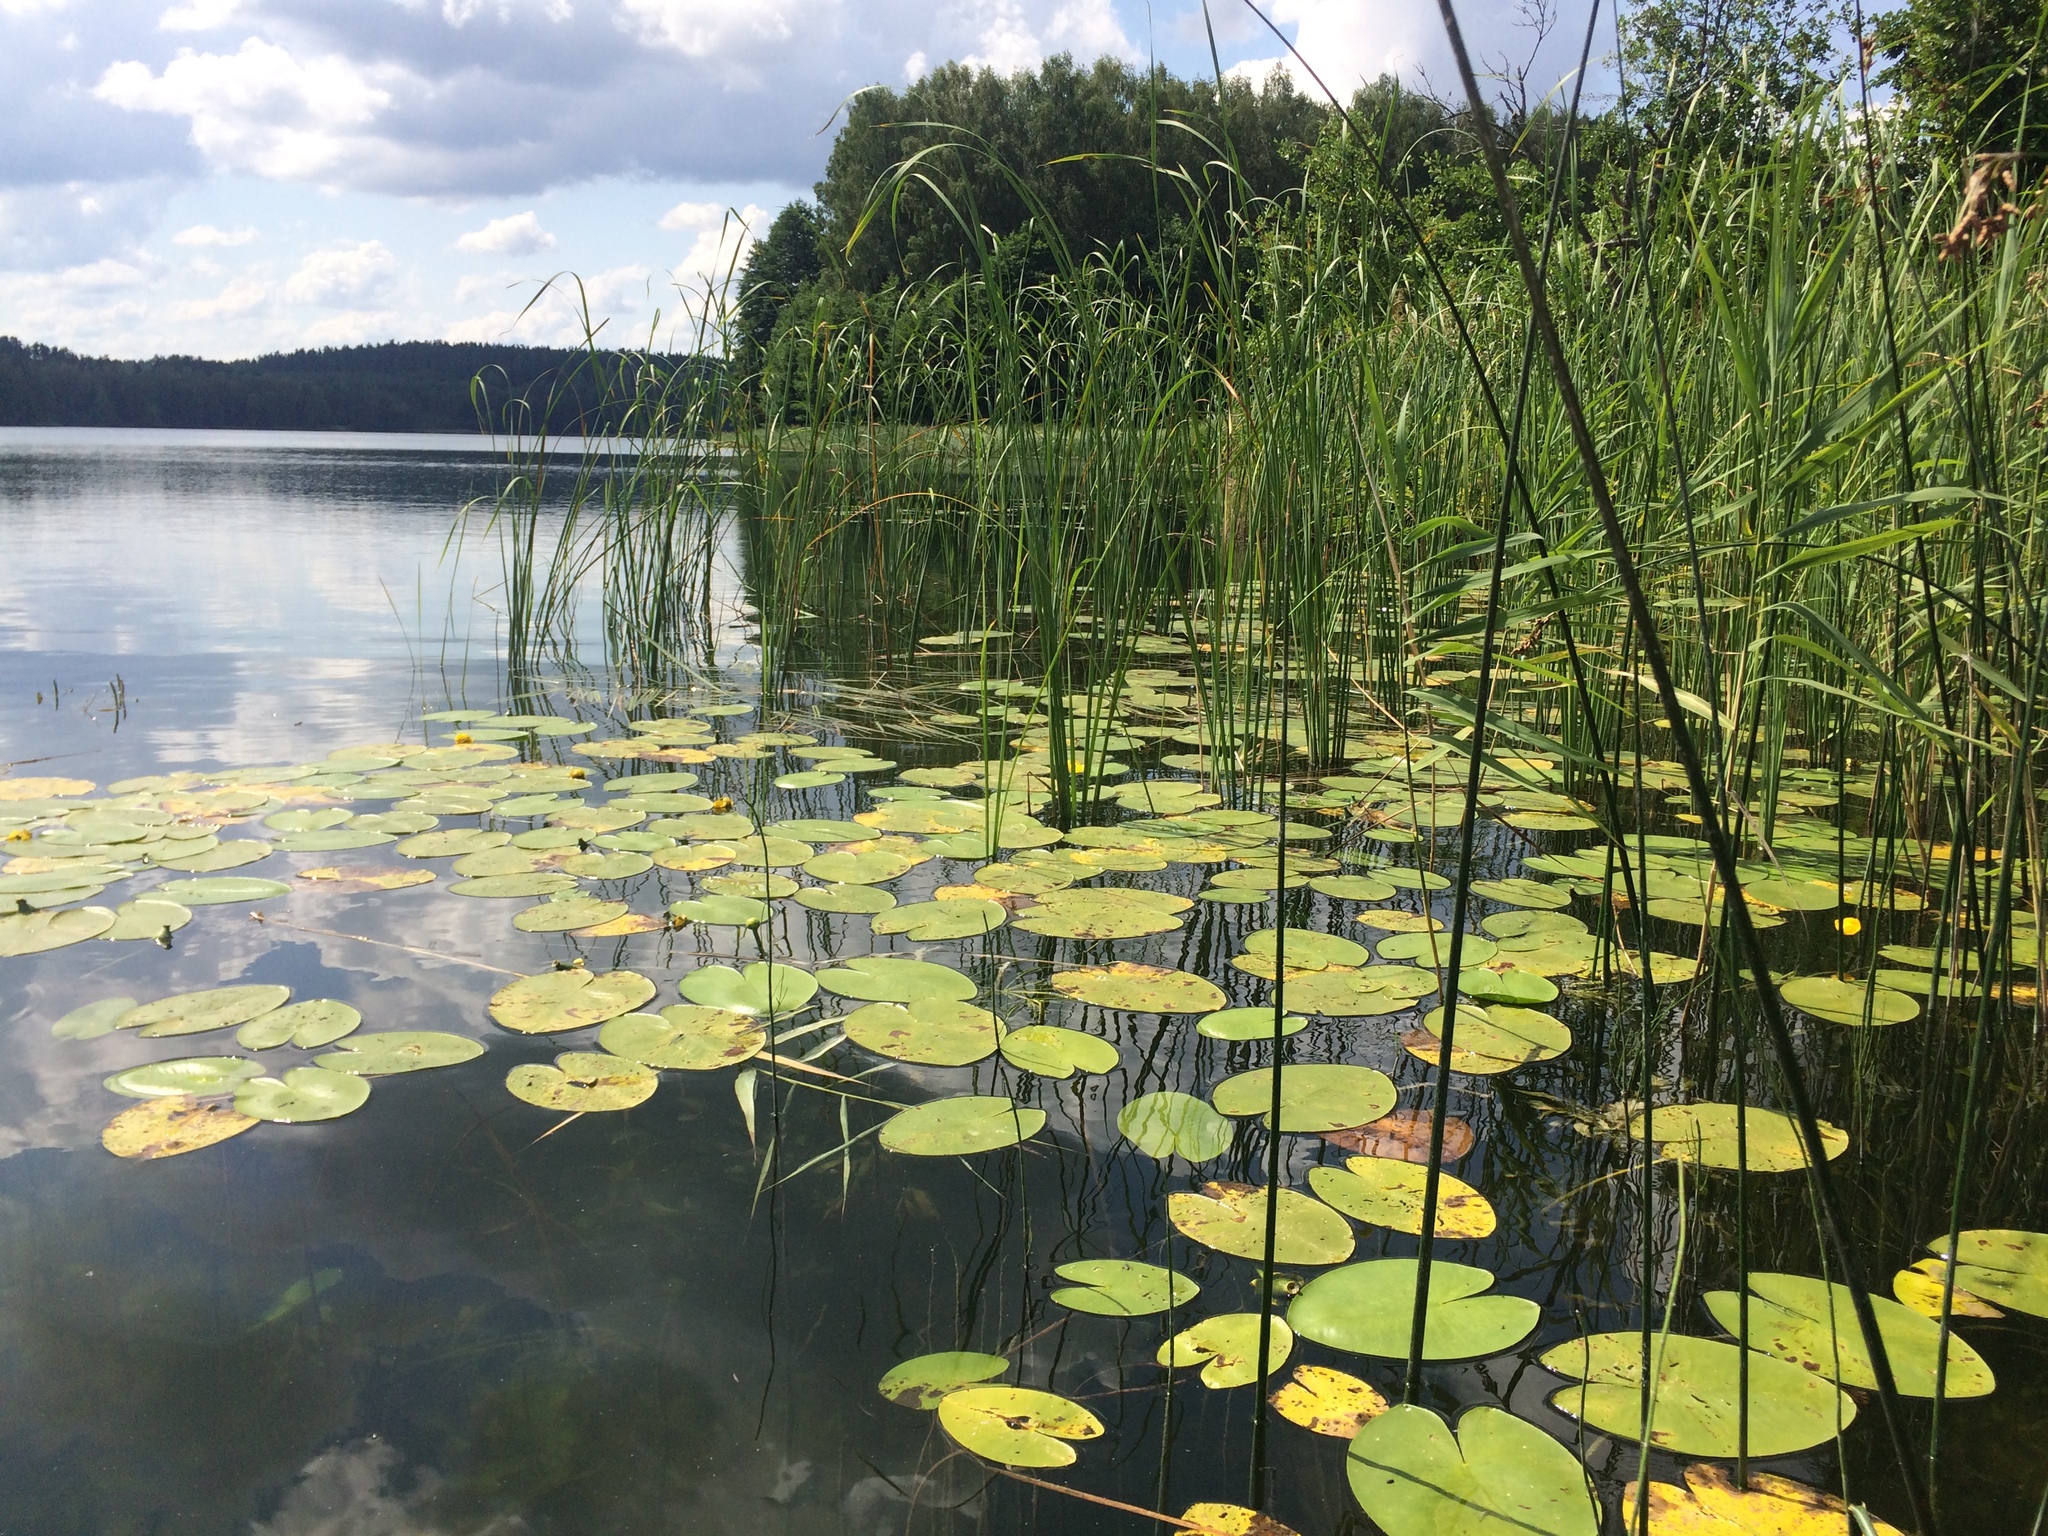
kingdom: Plantae
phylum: Tracheophyta
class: Magnoliopsida
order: Nymphaeales
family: Nymphaeaceae
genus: Nuphar
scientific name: Nuphar lutea
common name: Yellow water-lily
